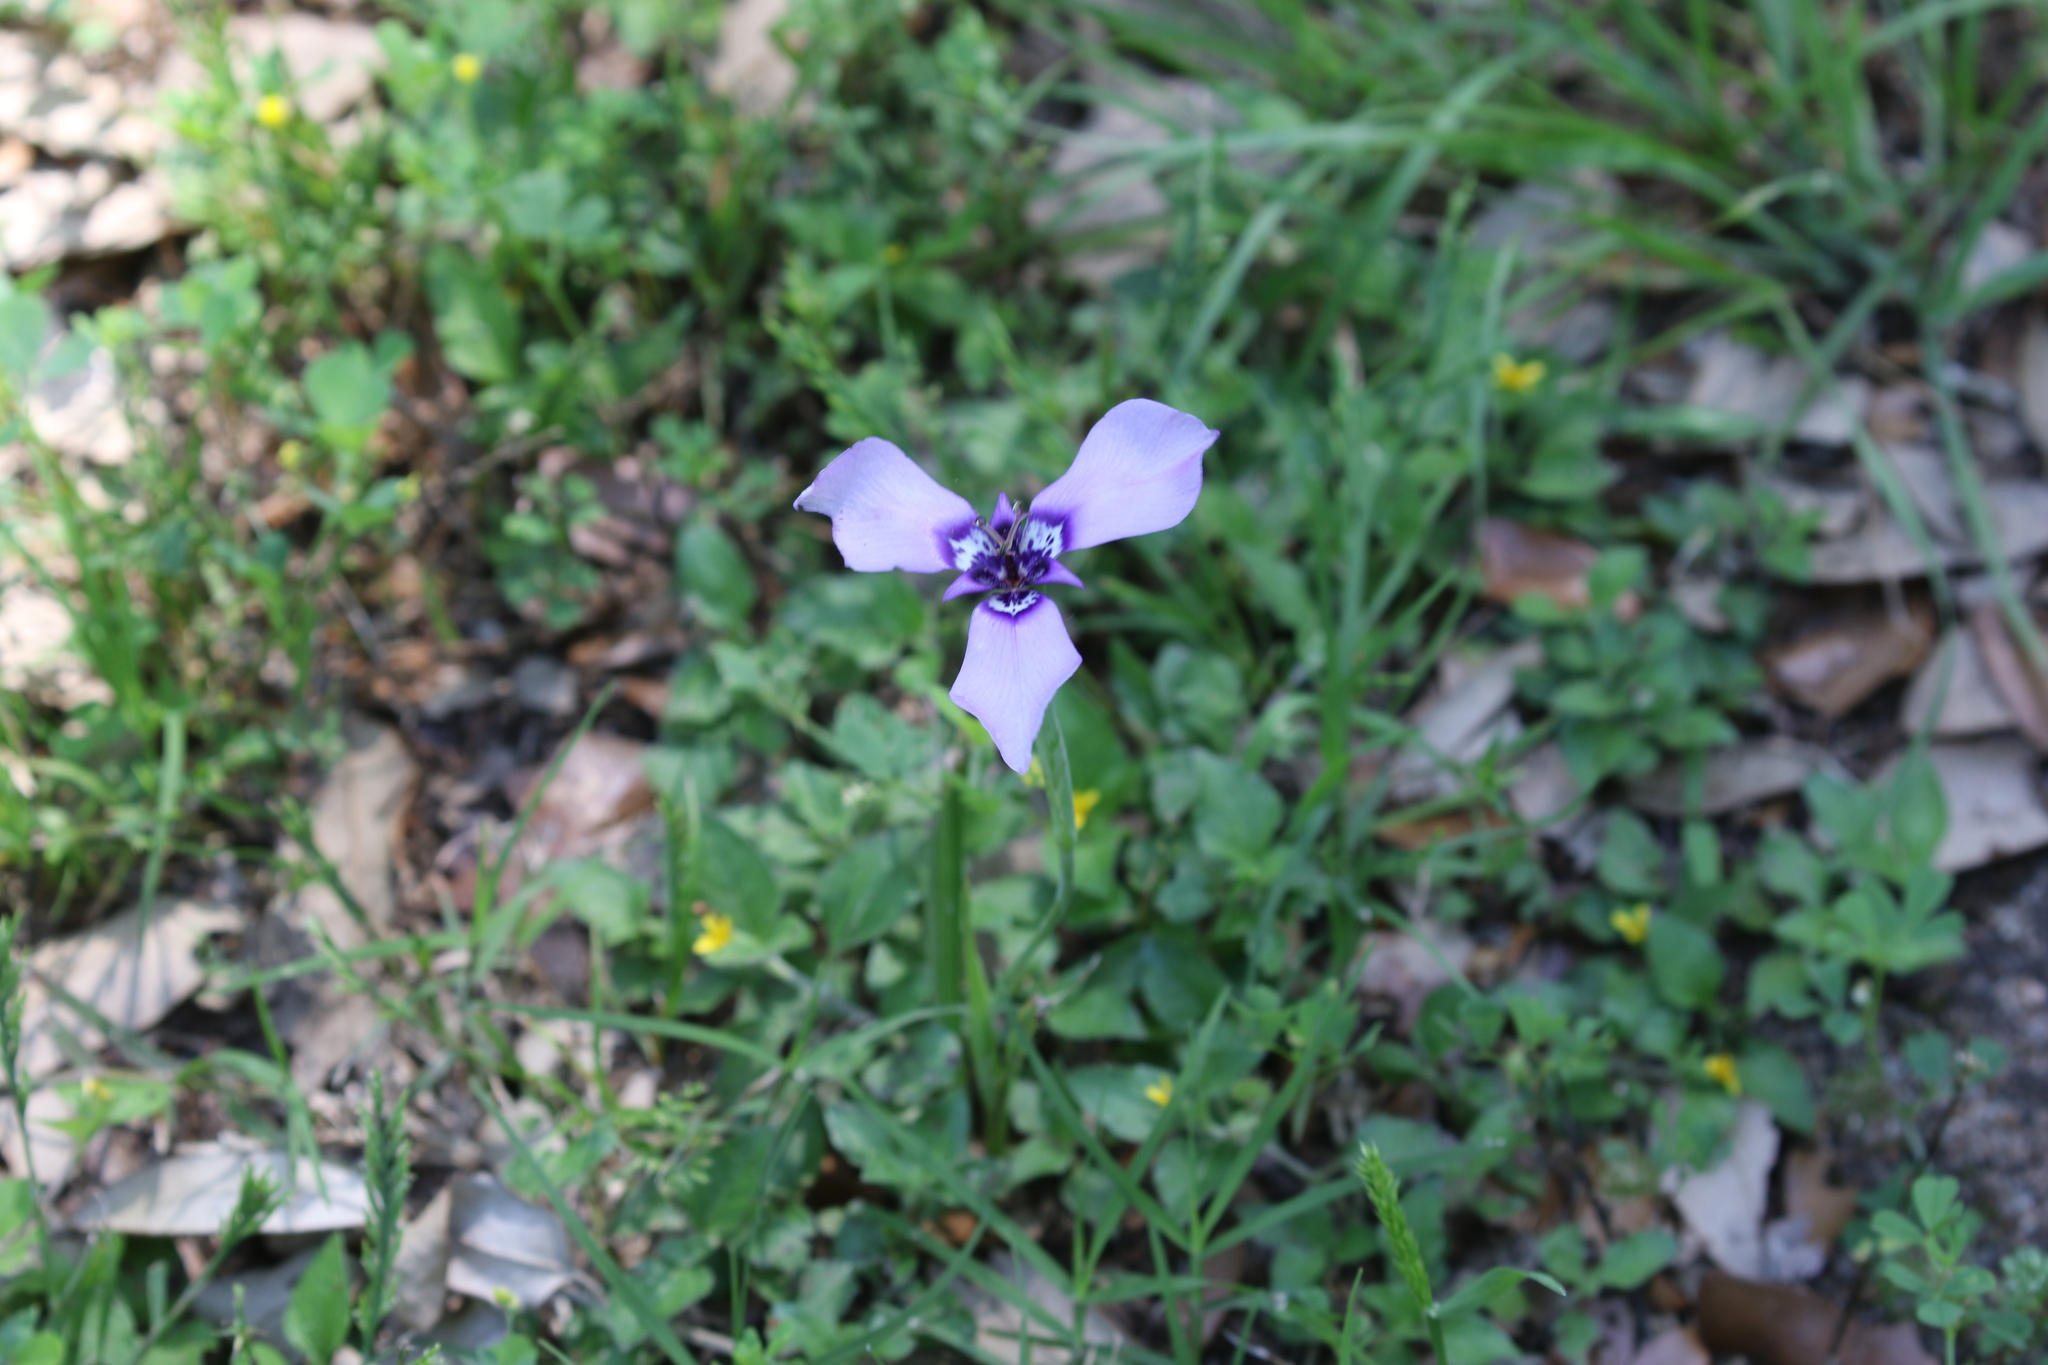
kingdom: Plantae
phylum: Tracheophyta
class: Liliopsida
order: Asparagales
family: Iridaceae
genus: Herbertia
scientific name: Herbertia lahue
